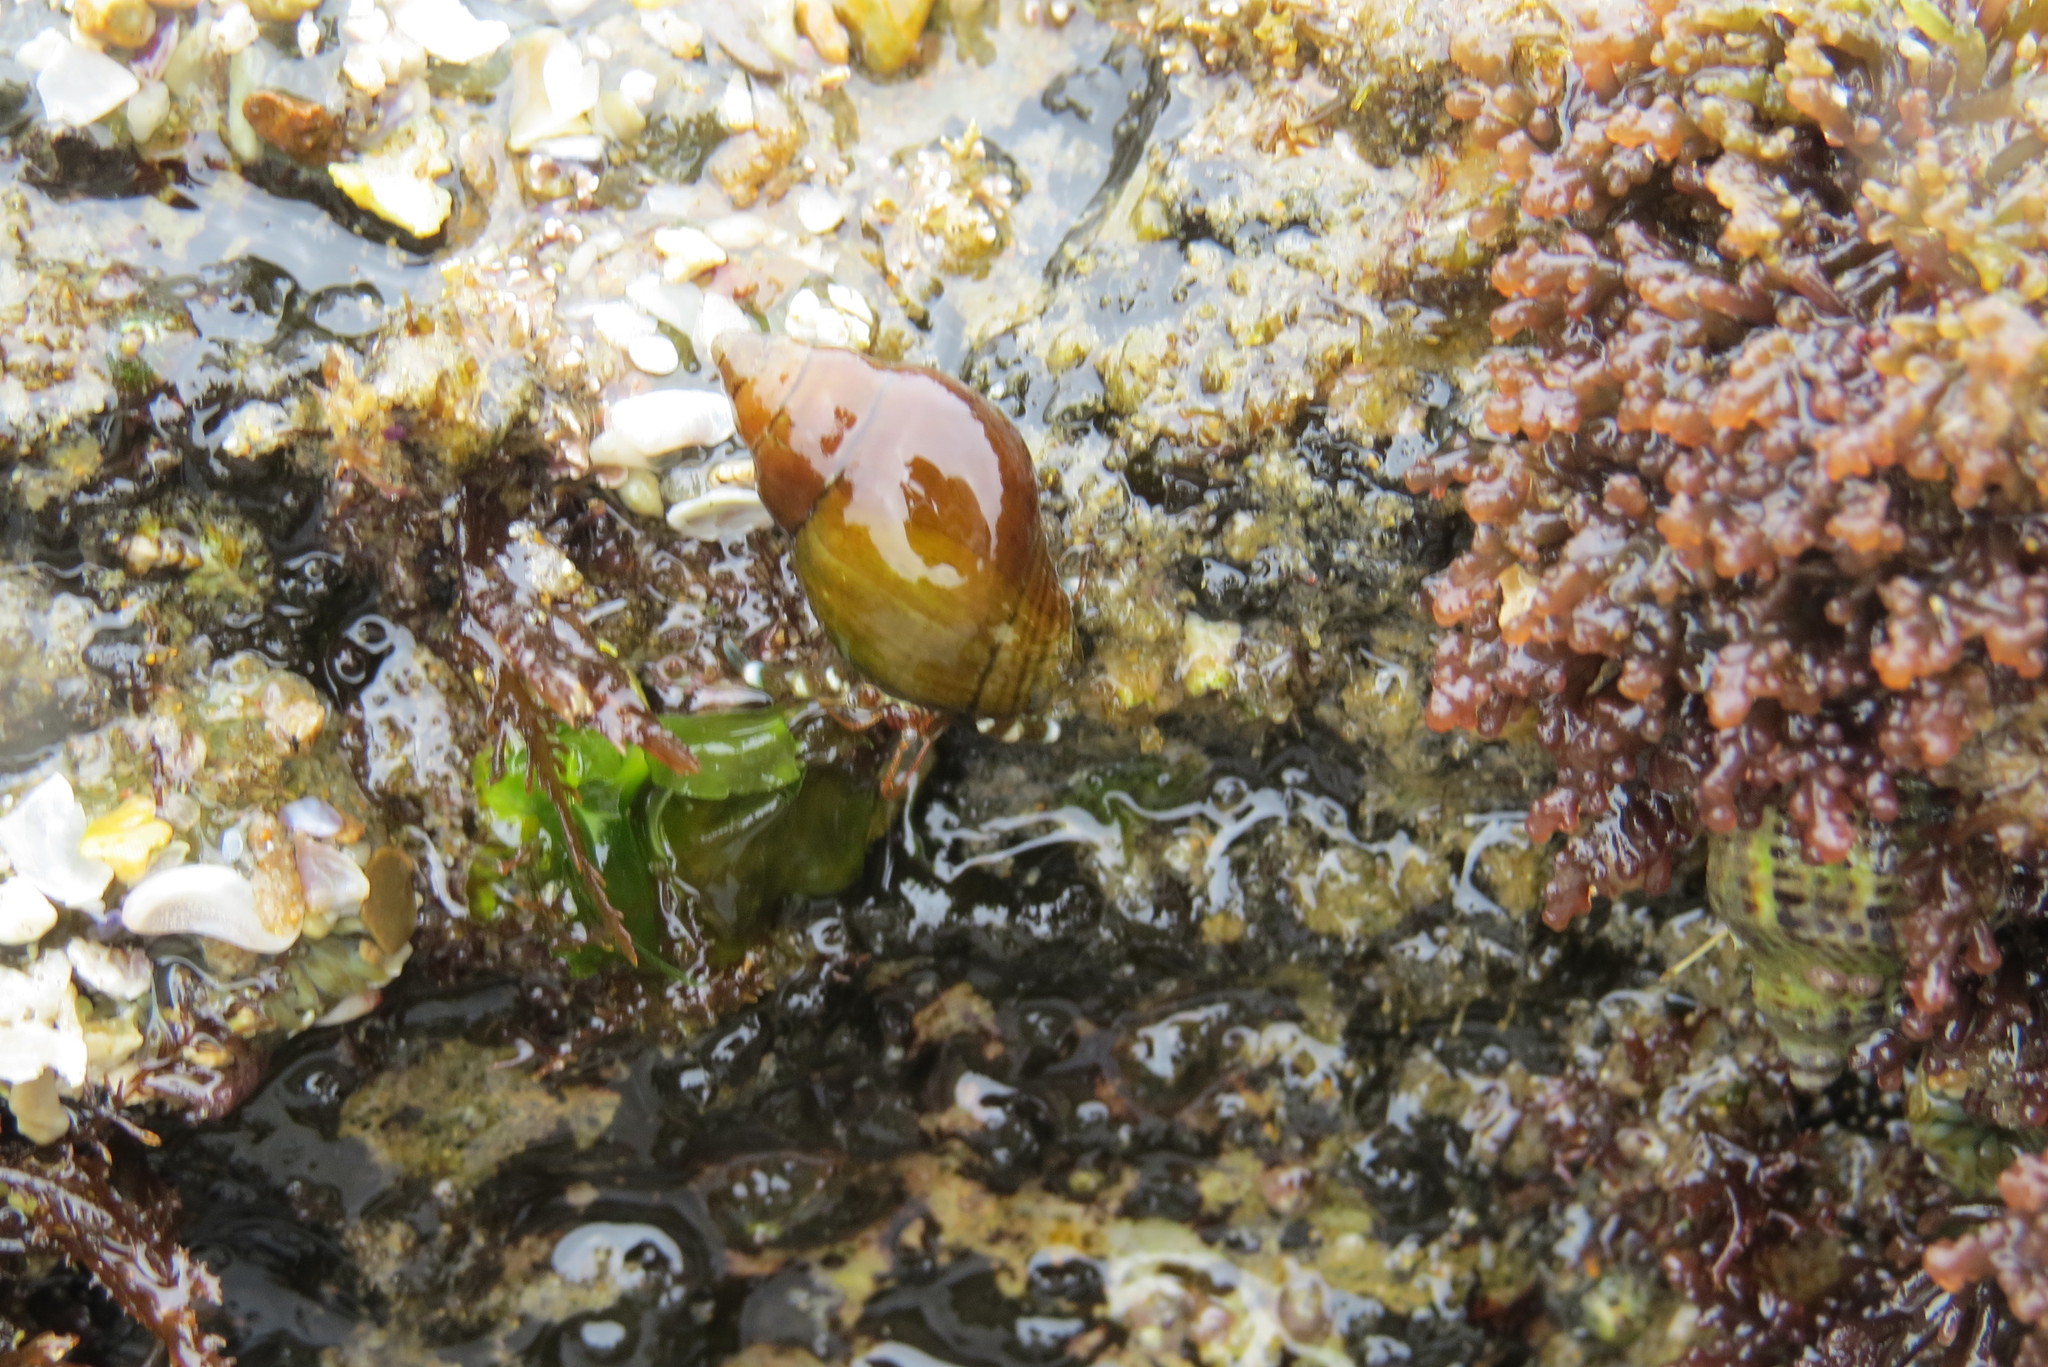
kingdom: Animalia
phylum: Arthropoda
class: Malacostraca
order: Decapoda
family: Paguridae
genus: Pagurus
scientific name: Pagurus samuelis
